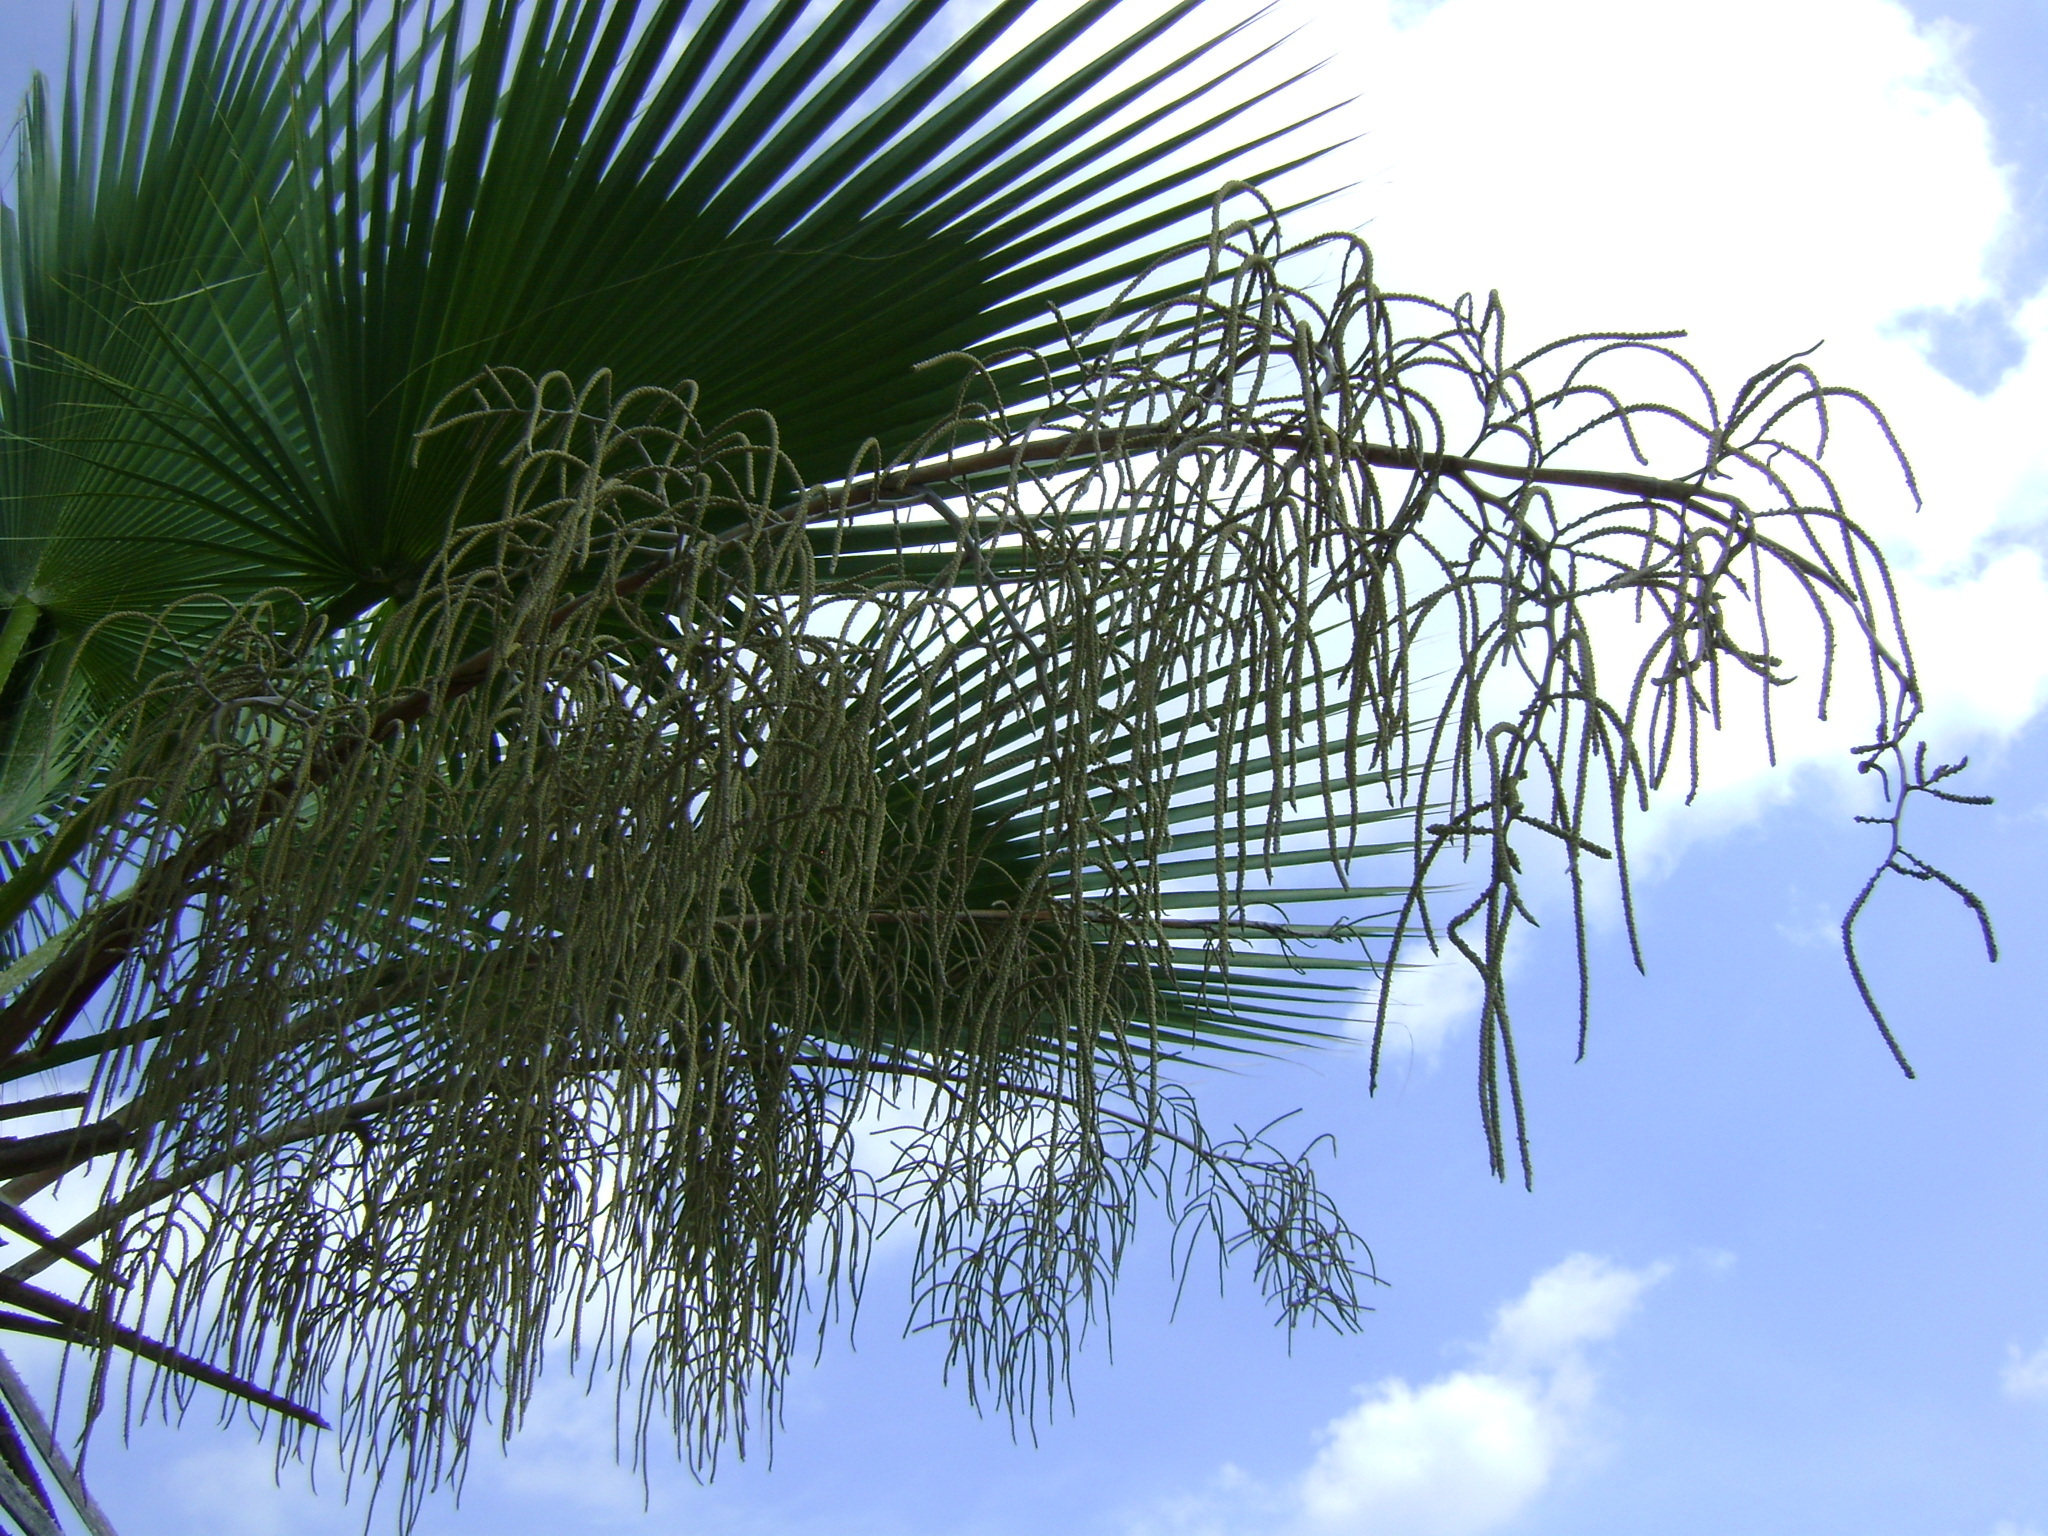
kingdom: Plantae
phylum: Tracheophyta
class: Liliopsida
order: Arecales
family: Arecaceae
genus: Brahea
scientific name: Brahea dulcis
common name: Apak palm
